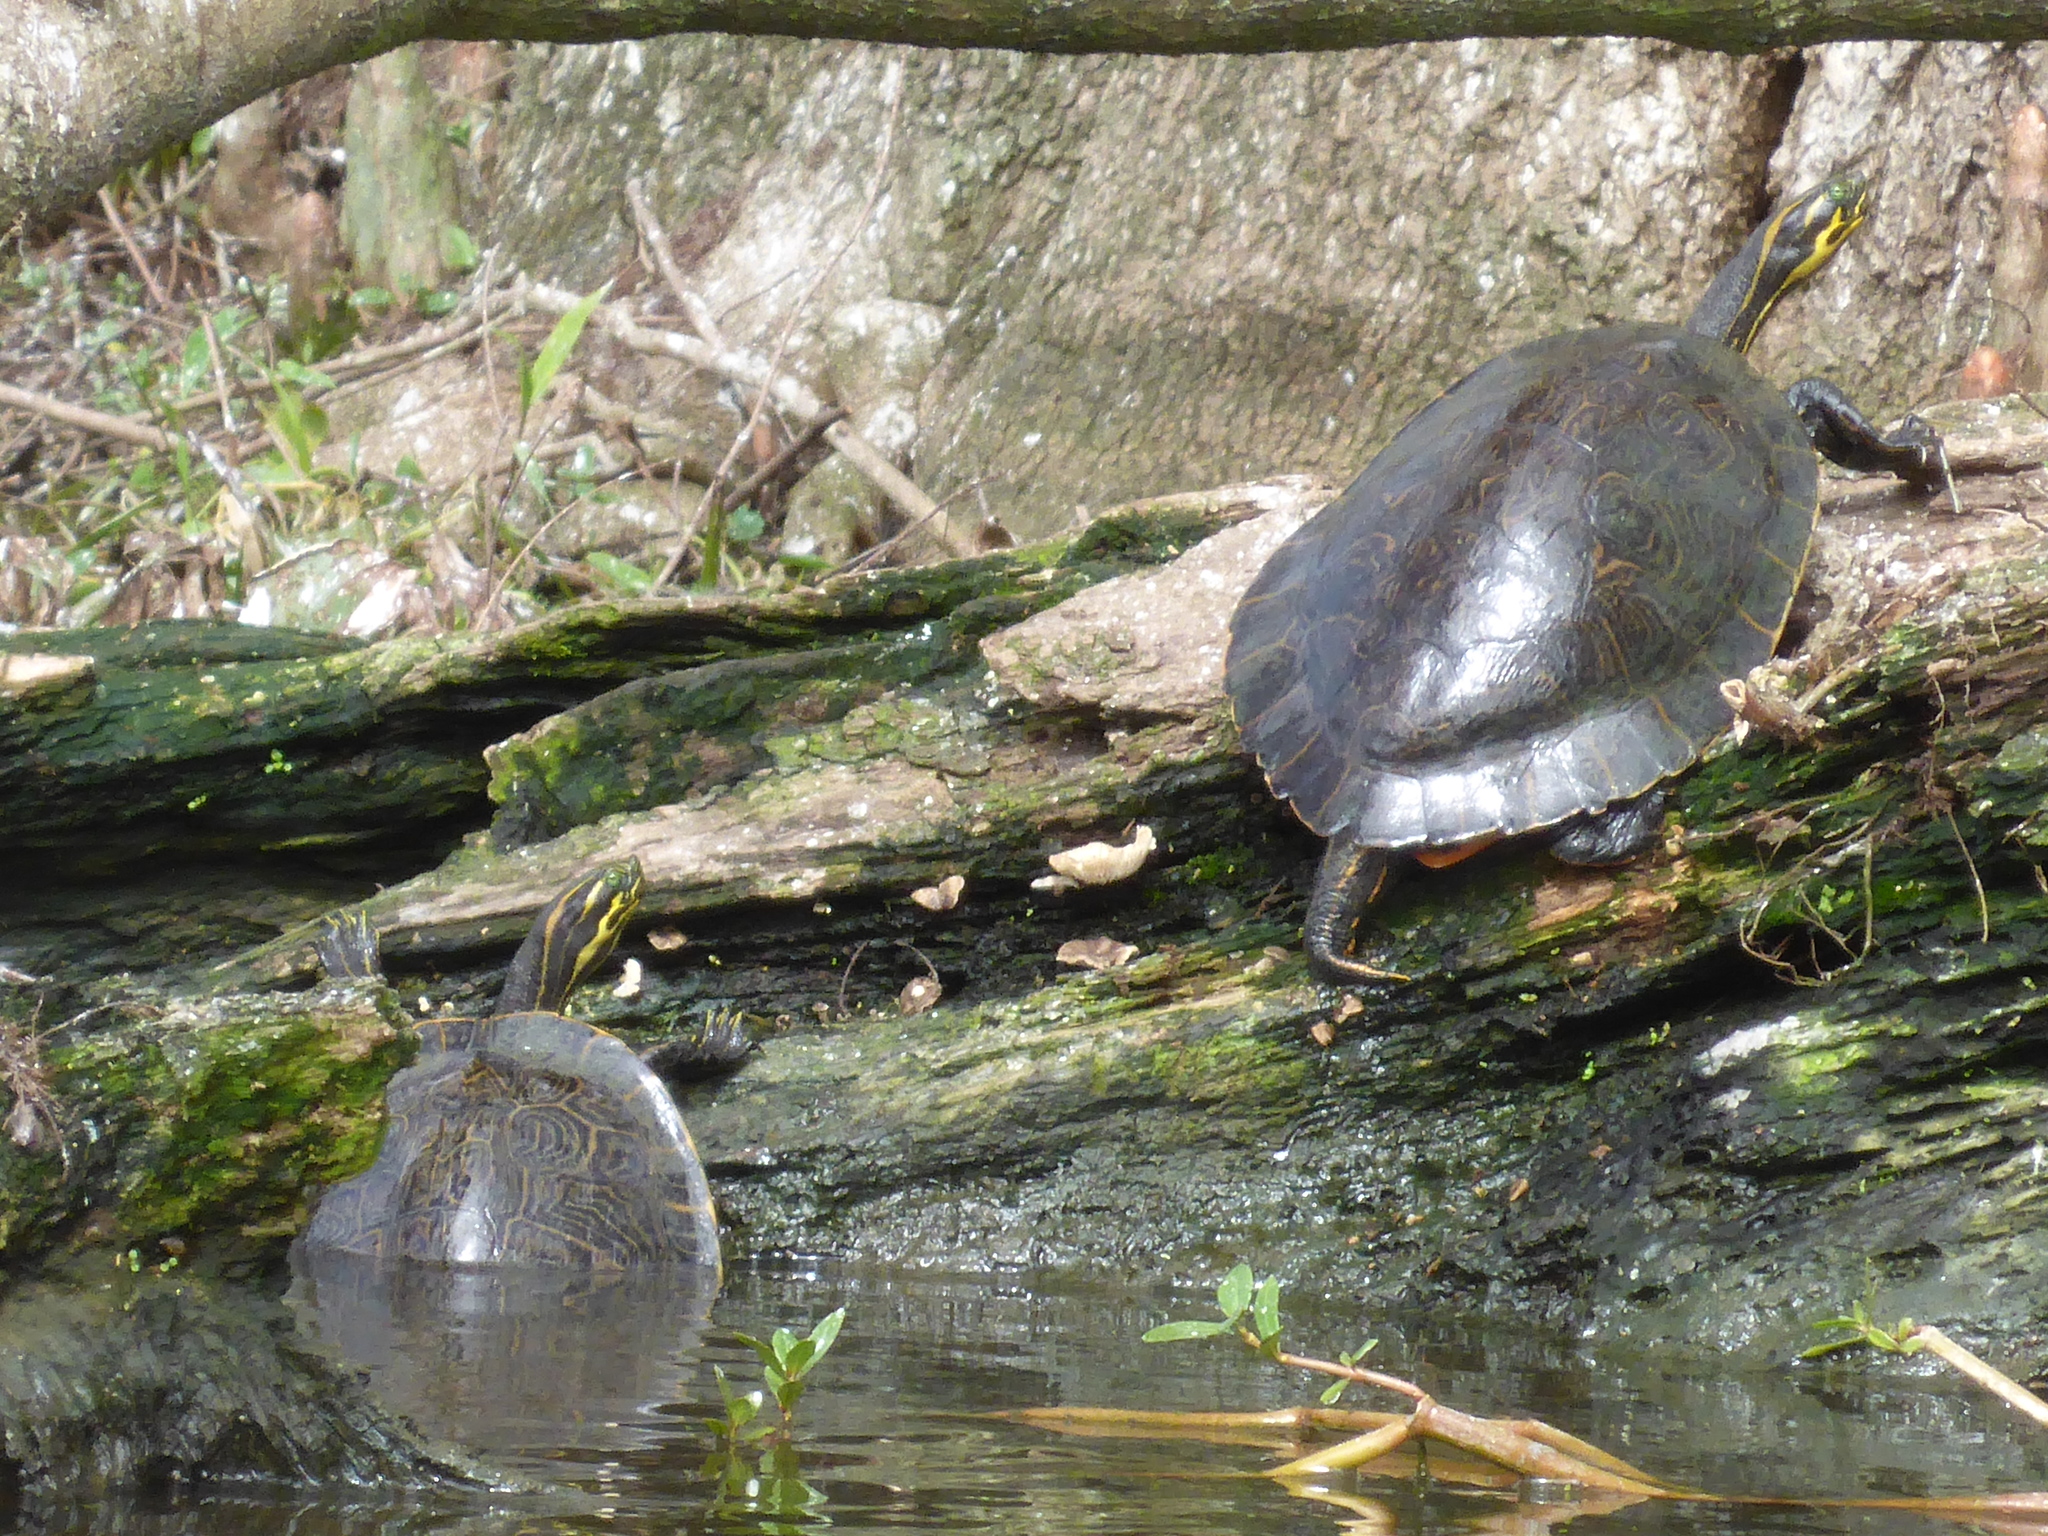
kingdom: Animalia
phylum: Chordata
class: Testudines
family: Emydidae
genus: Pseudemys
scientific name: Pseudemys concinna
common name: Eastern river cooter
